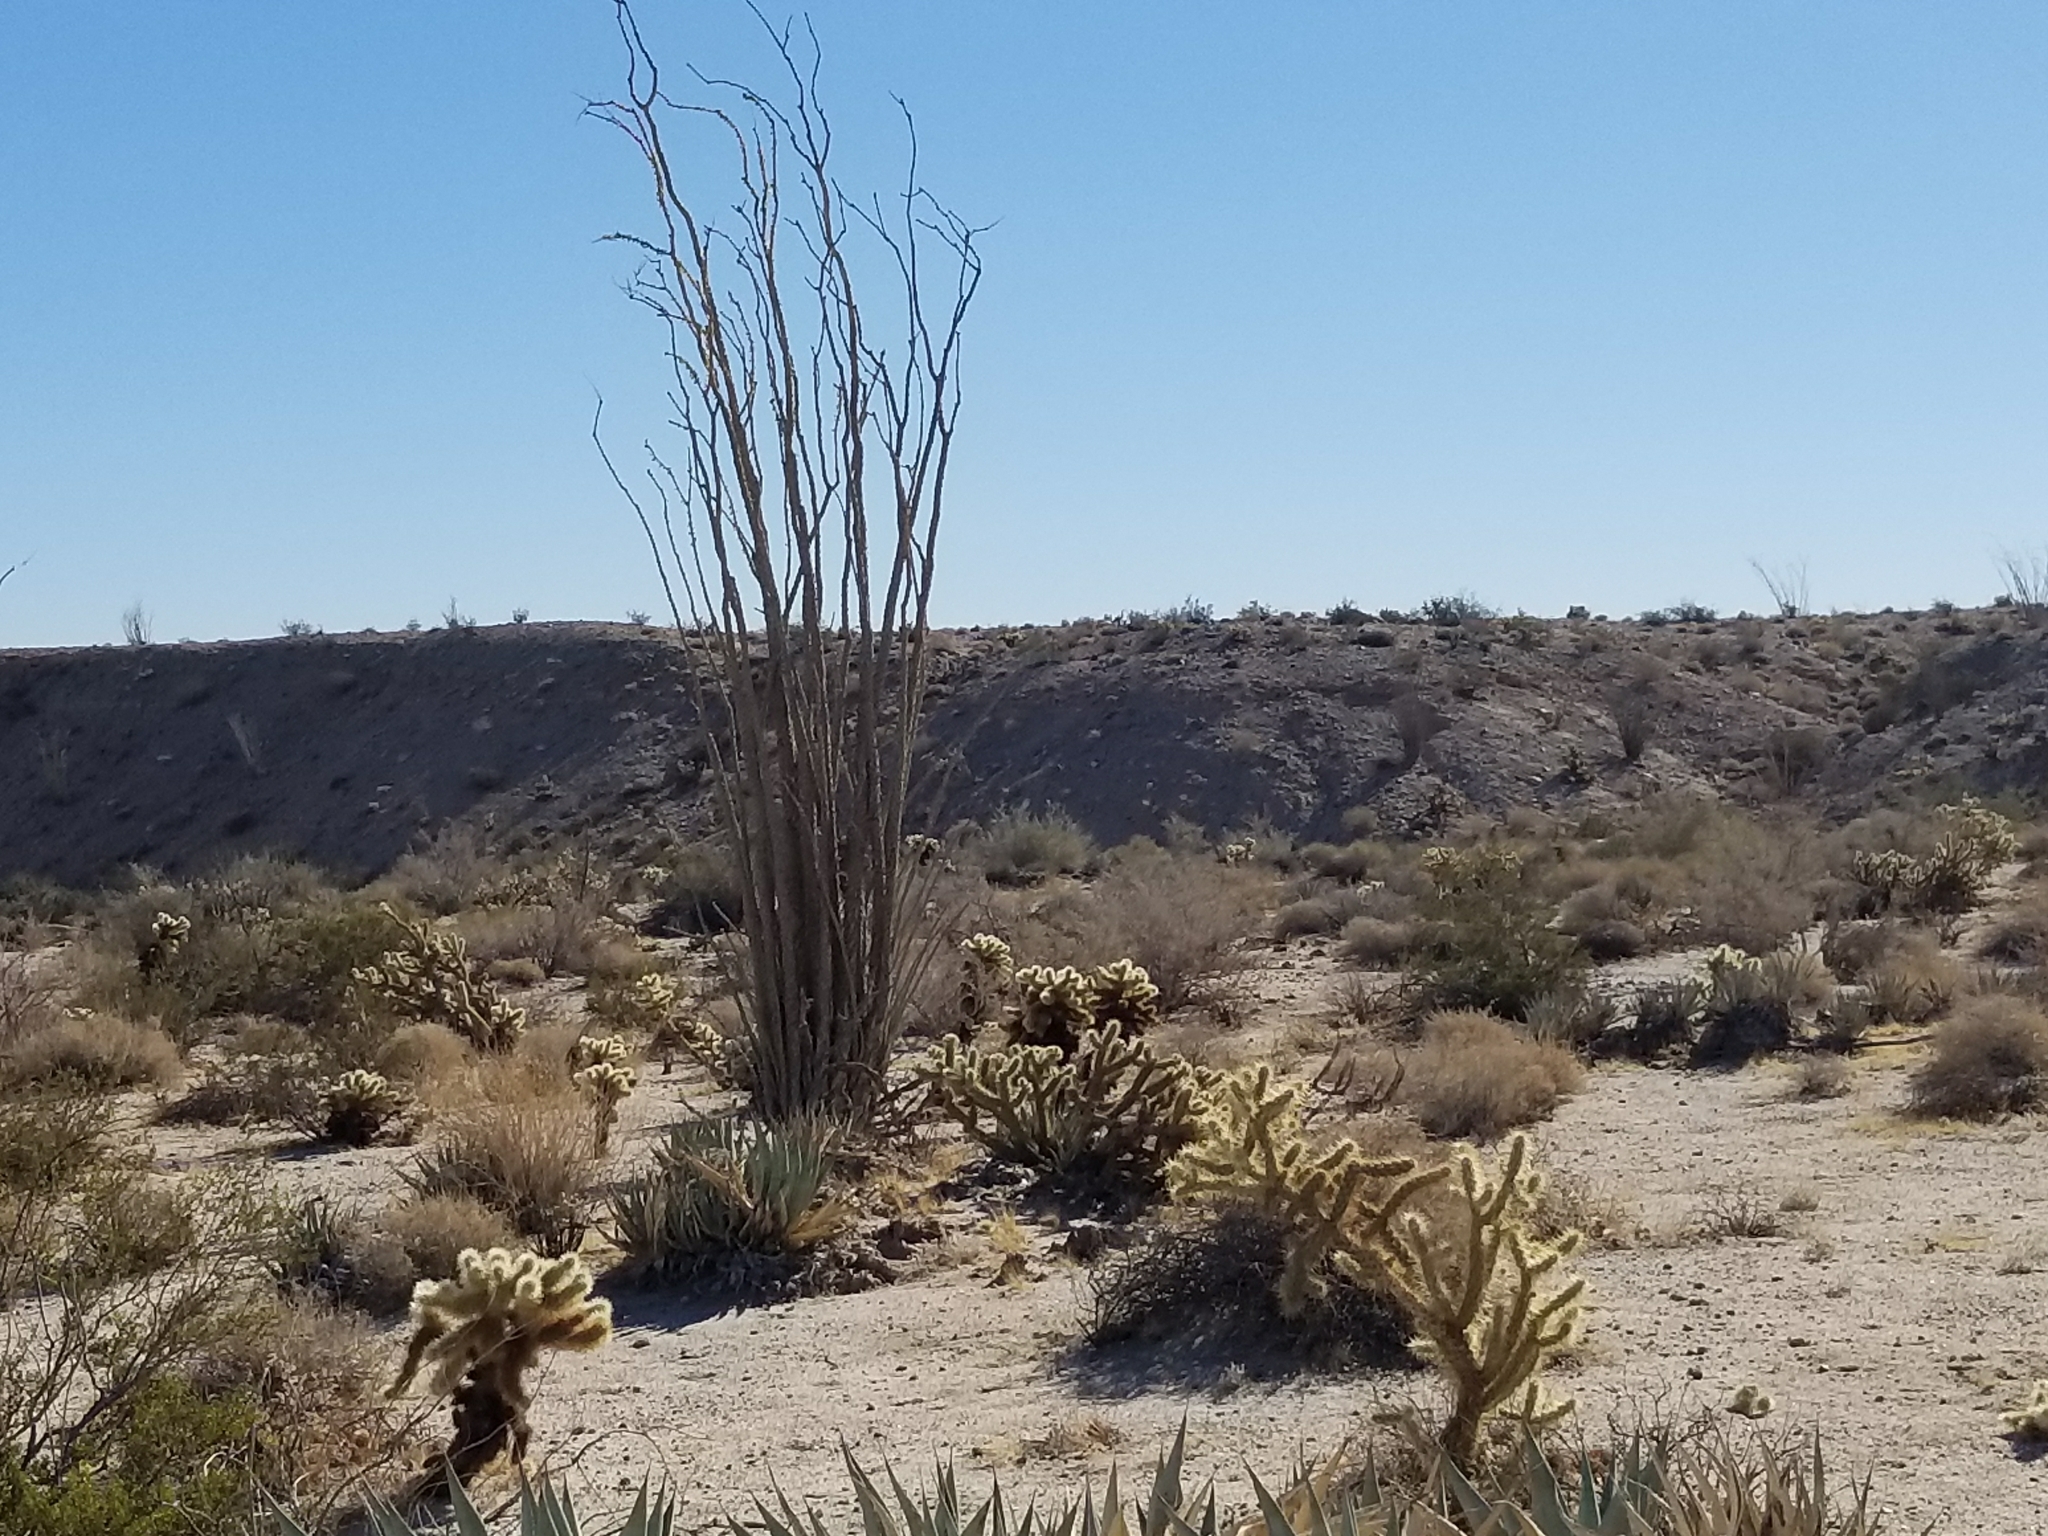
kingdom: Plantae
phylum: Tracheophyta
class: Magnoliopsida
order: Ericales
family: Fouquieriaceae
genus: Fouquieria
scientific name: Fouquieria splendens
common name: Vine-cactus
